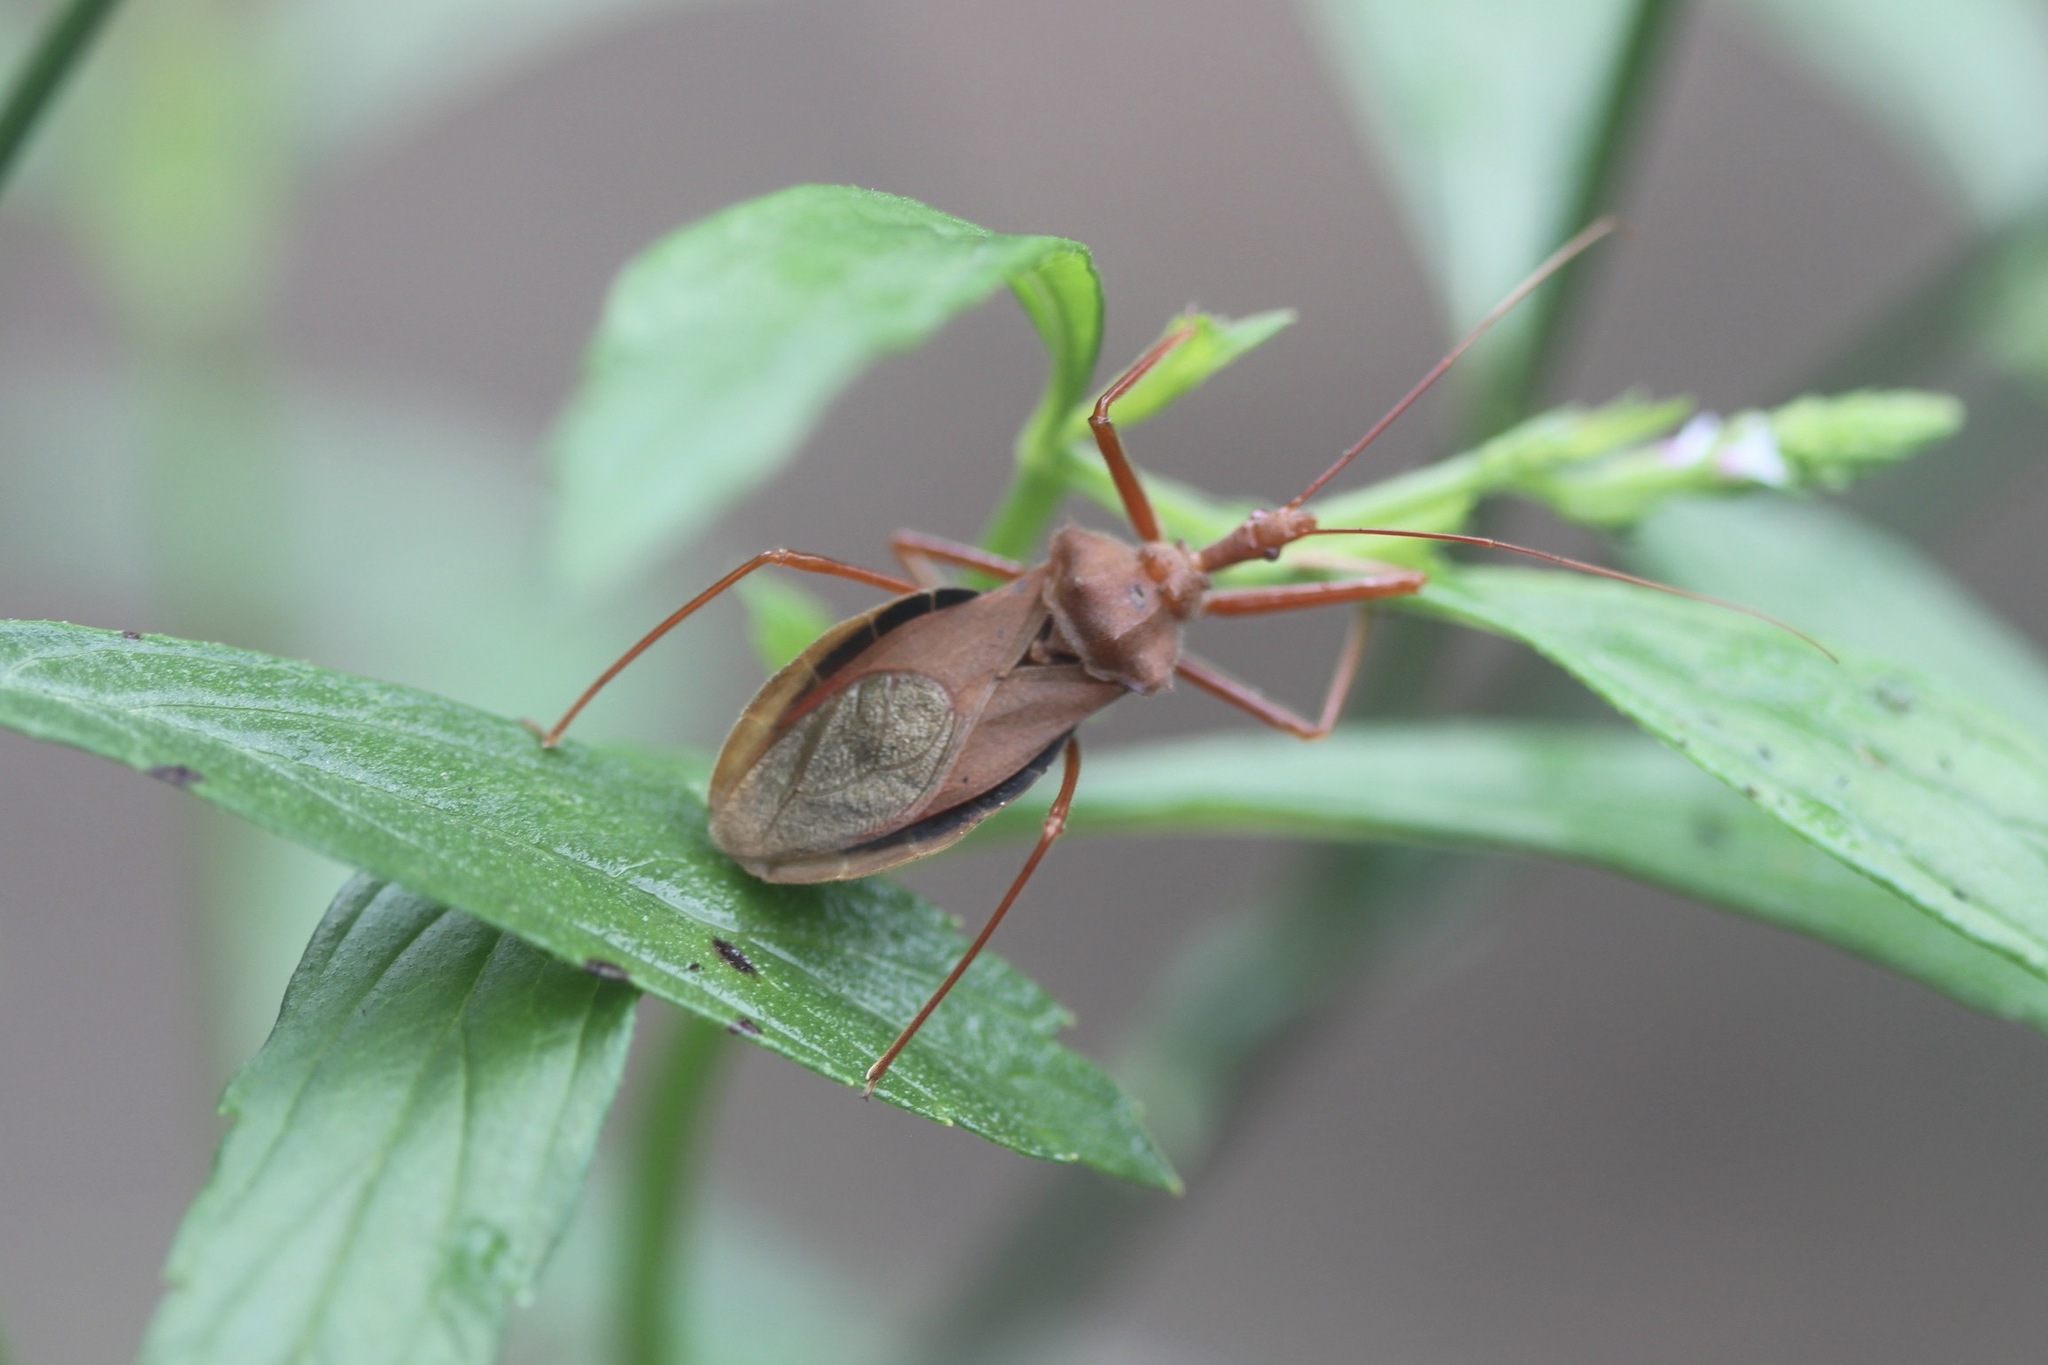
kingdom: Animalia
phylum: Arthropoda
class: Insecta
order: Hemiptera
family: Reduviidae
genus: Montina
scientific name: Montina confusa
